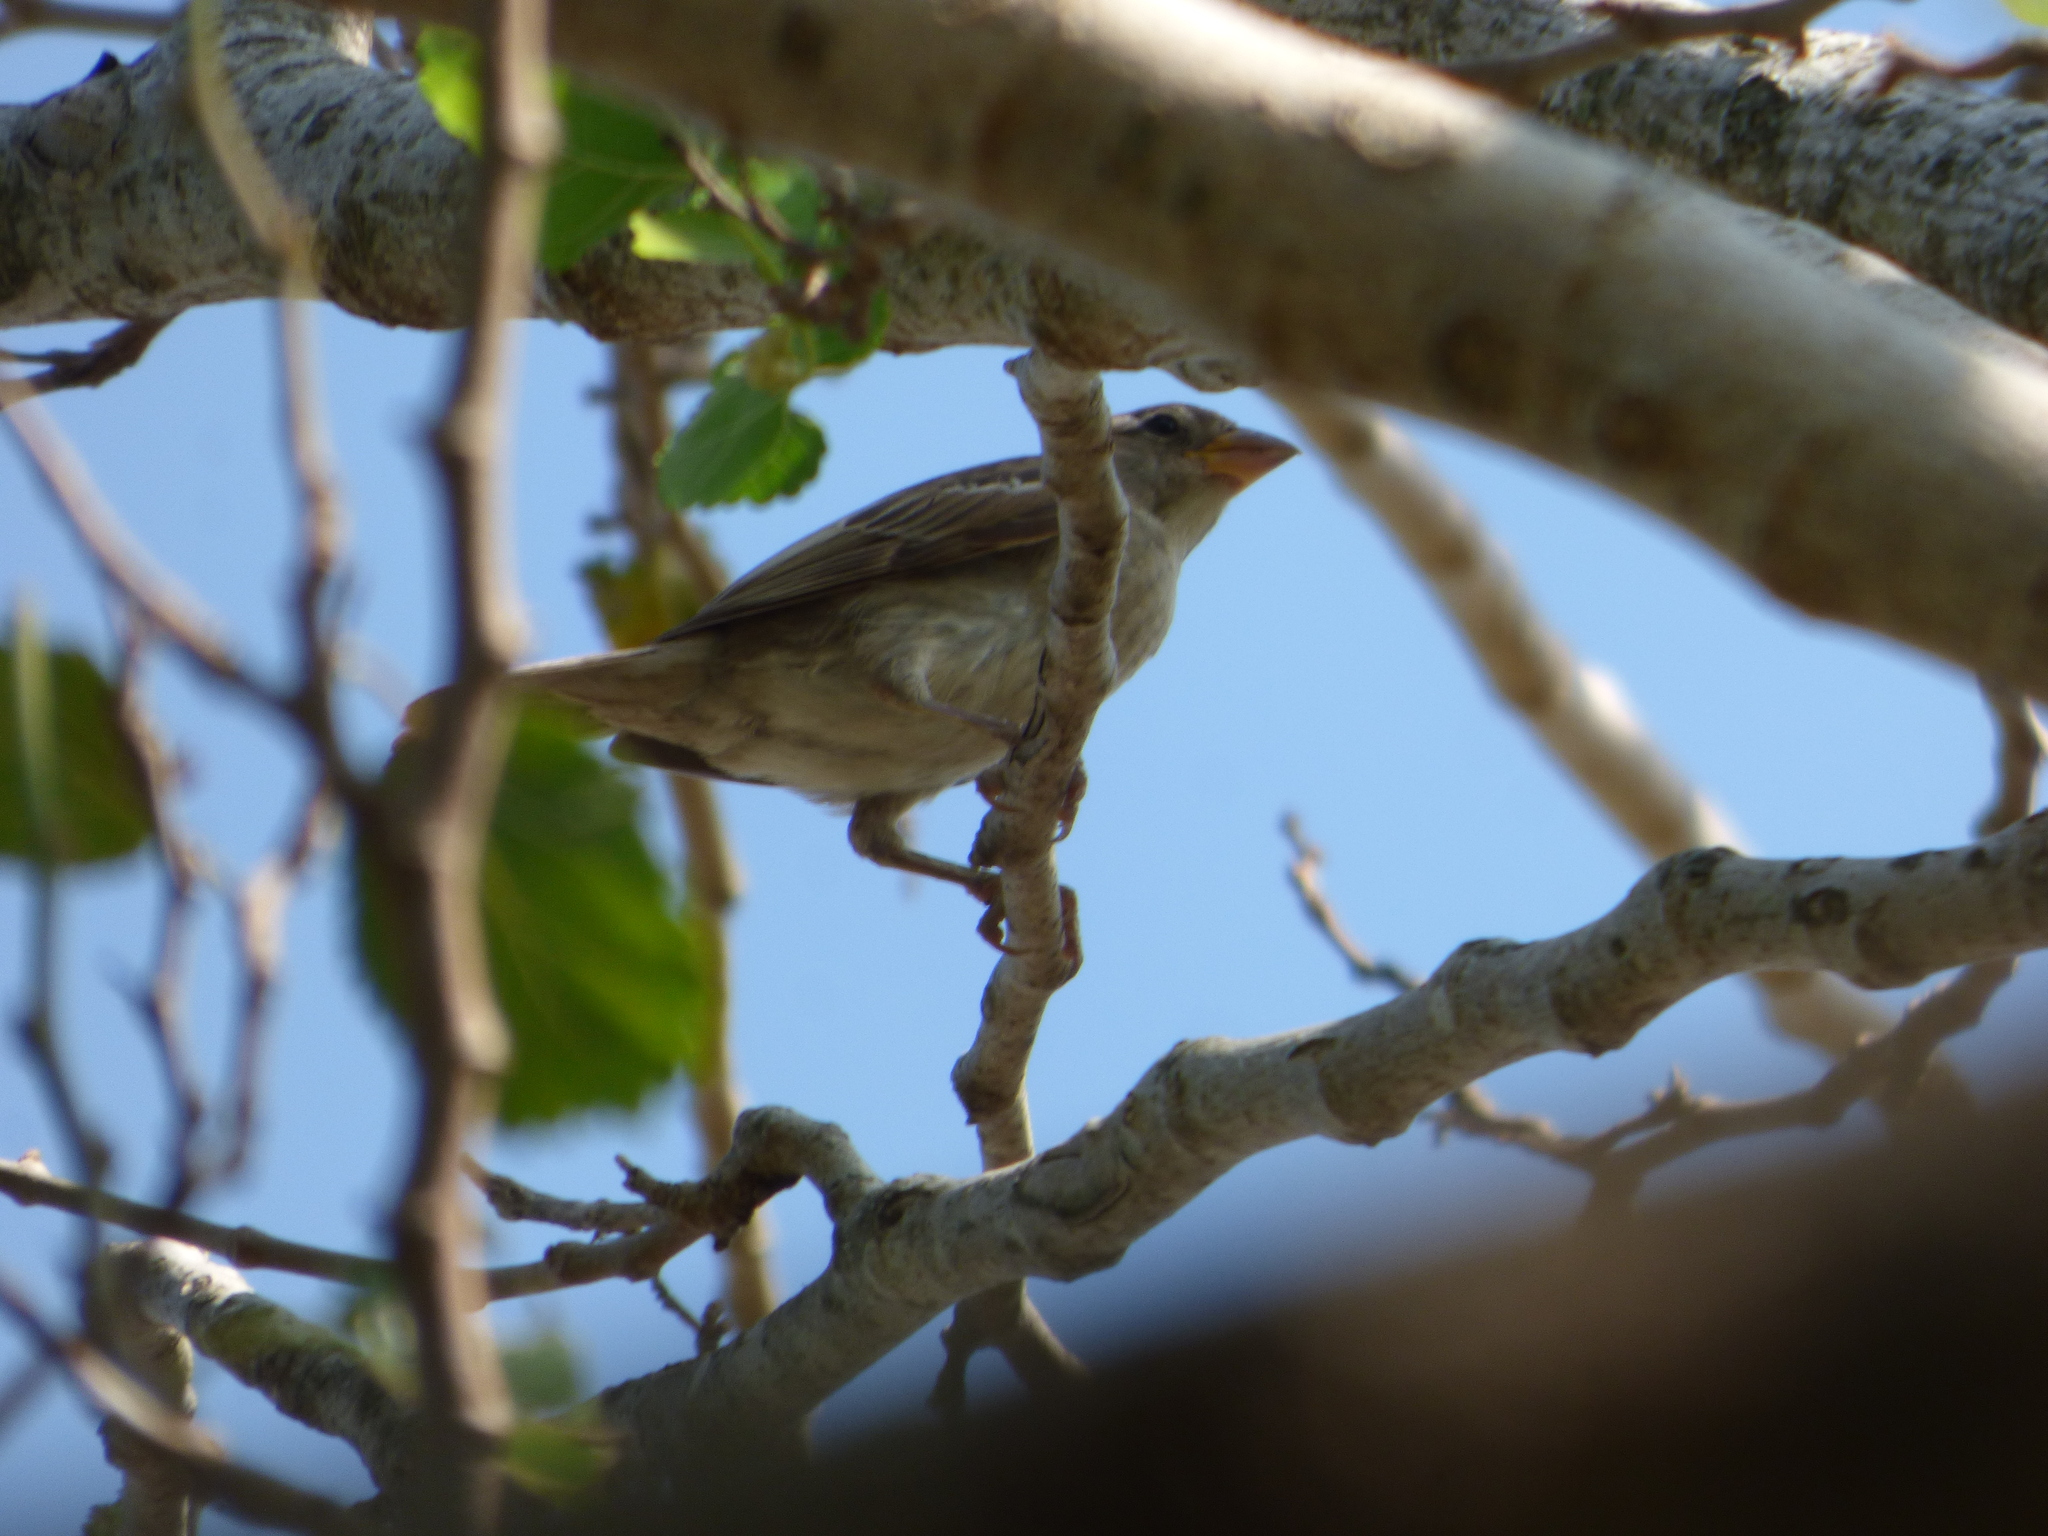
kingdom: Animalia
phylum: Chordata
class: Aves
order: Passeriformes
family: Passeridae
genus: Passer
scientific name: Passer domesticus
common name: House sparrow
